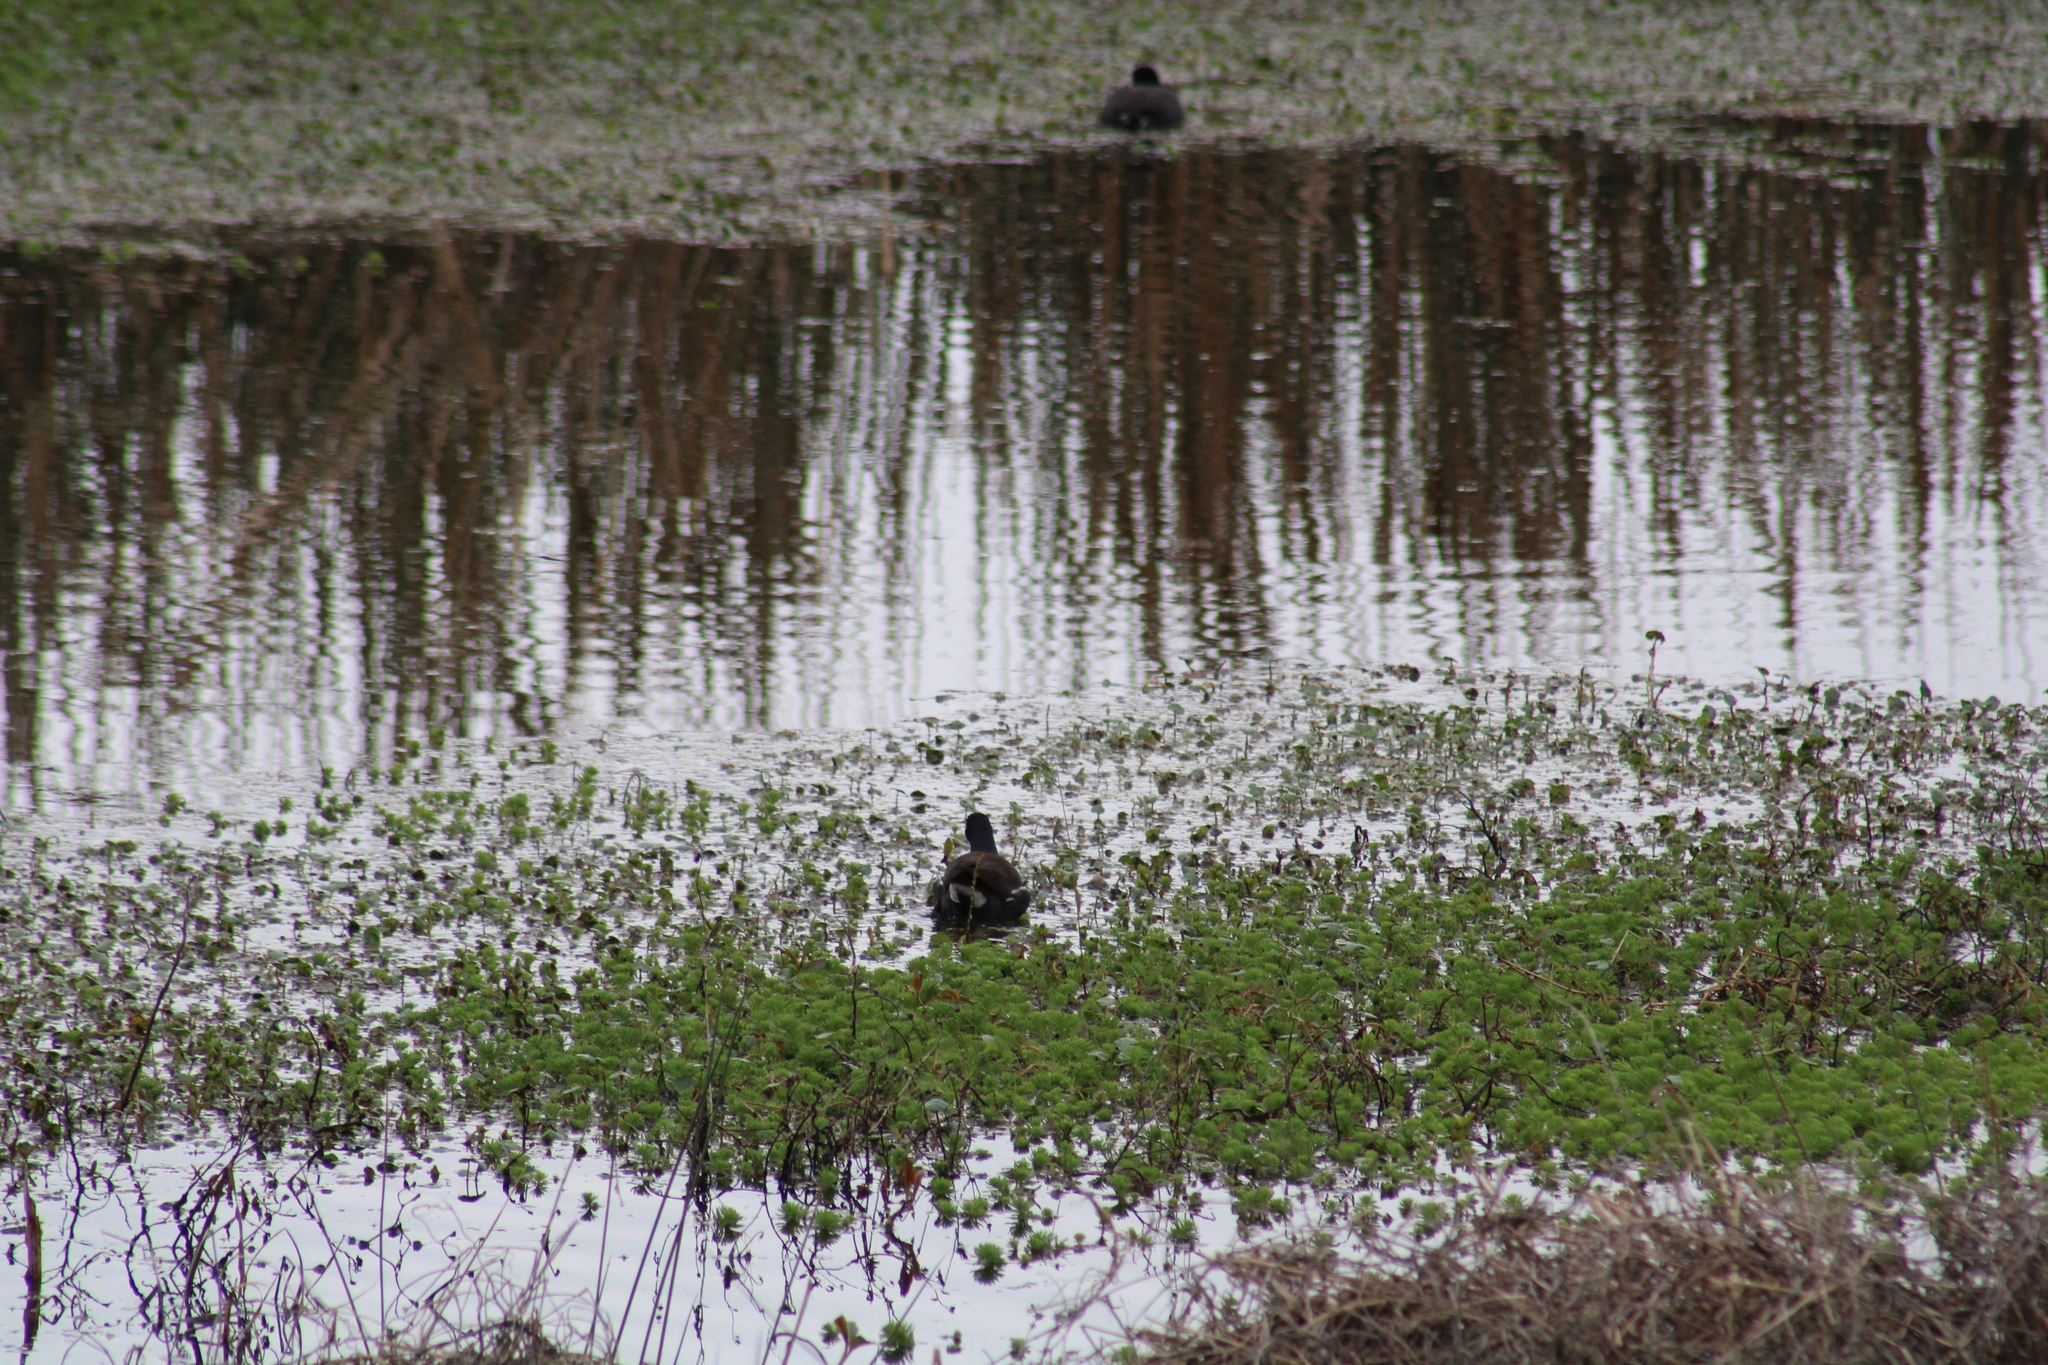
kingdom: Animalia
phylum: Chordata
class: Aves
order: Gruiformes
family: Rallidae
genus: Gallinula
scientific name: Gallinula chloropus
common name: Common moorhen
